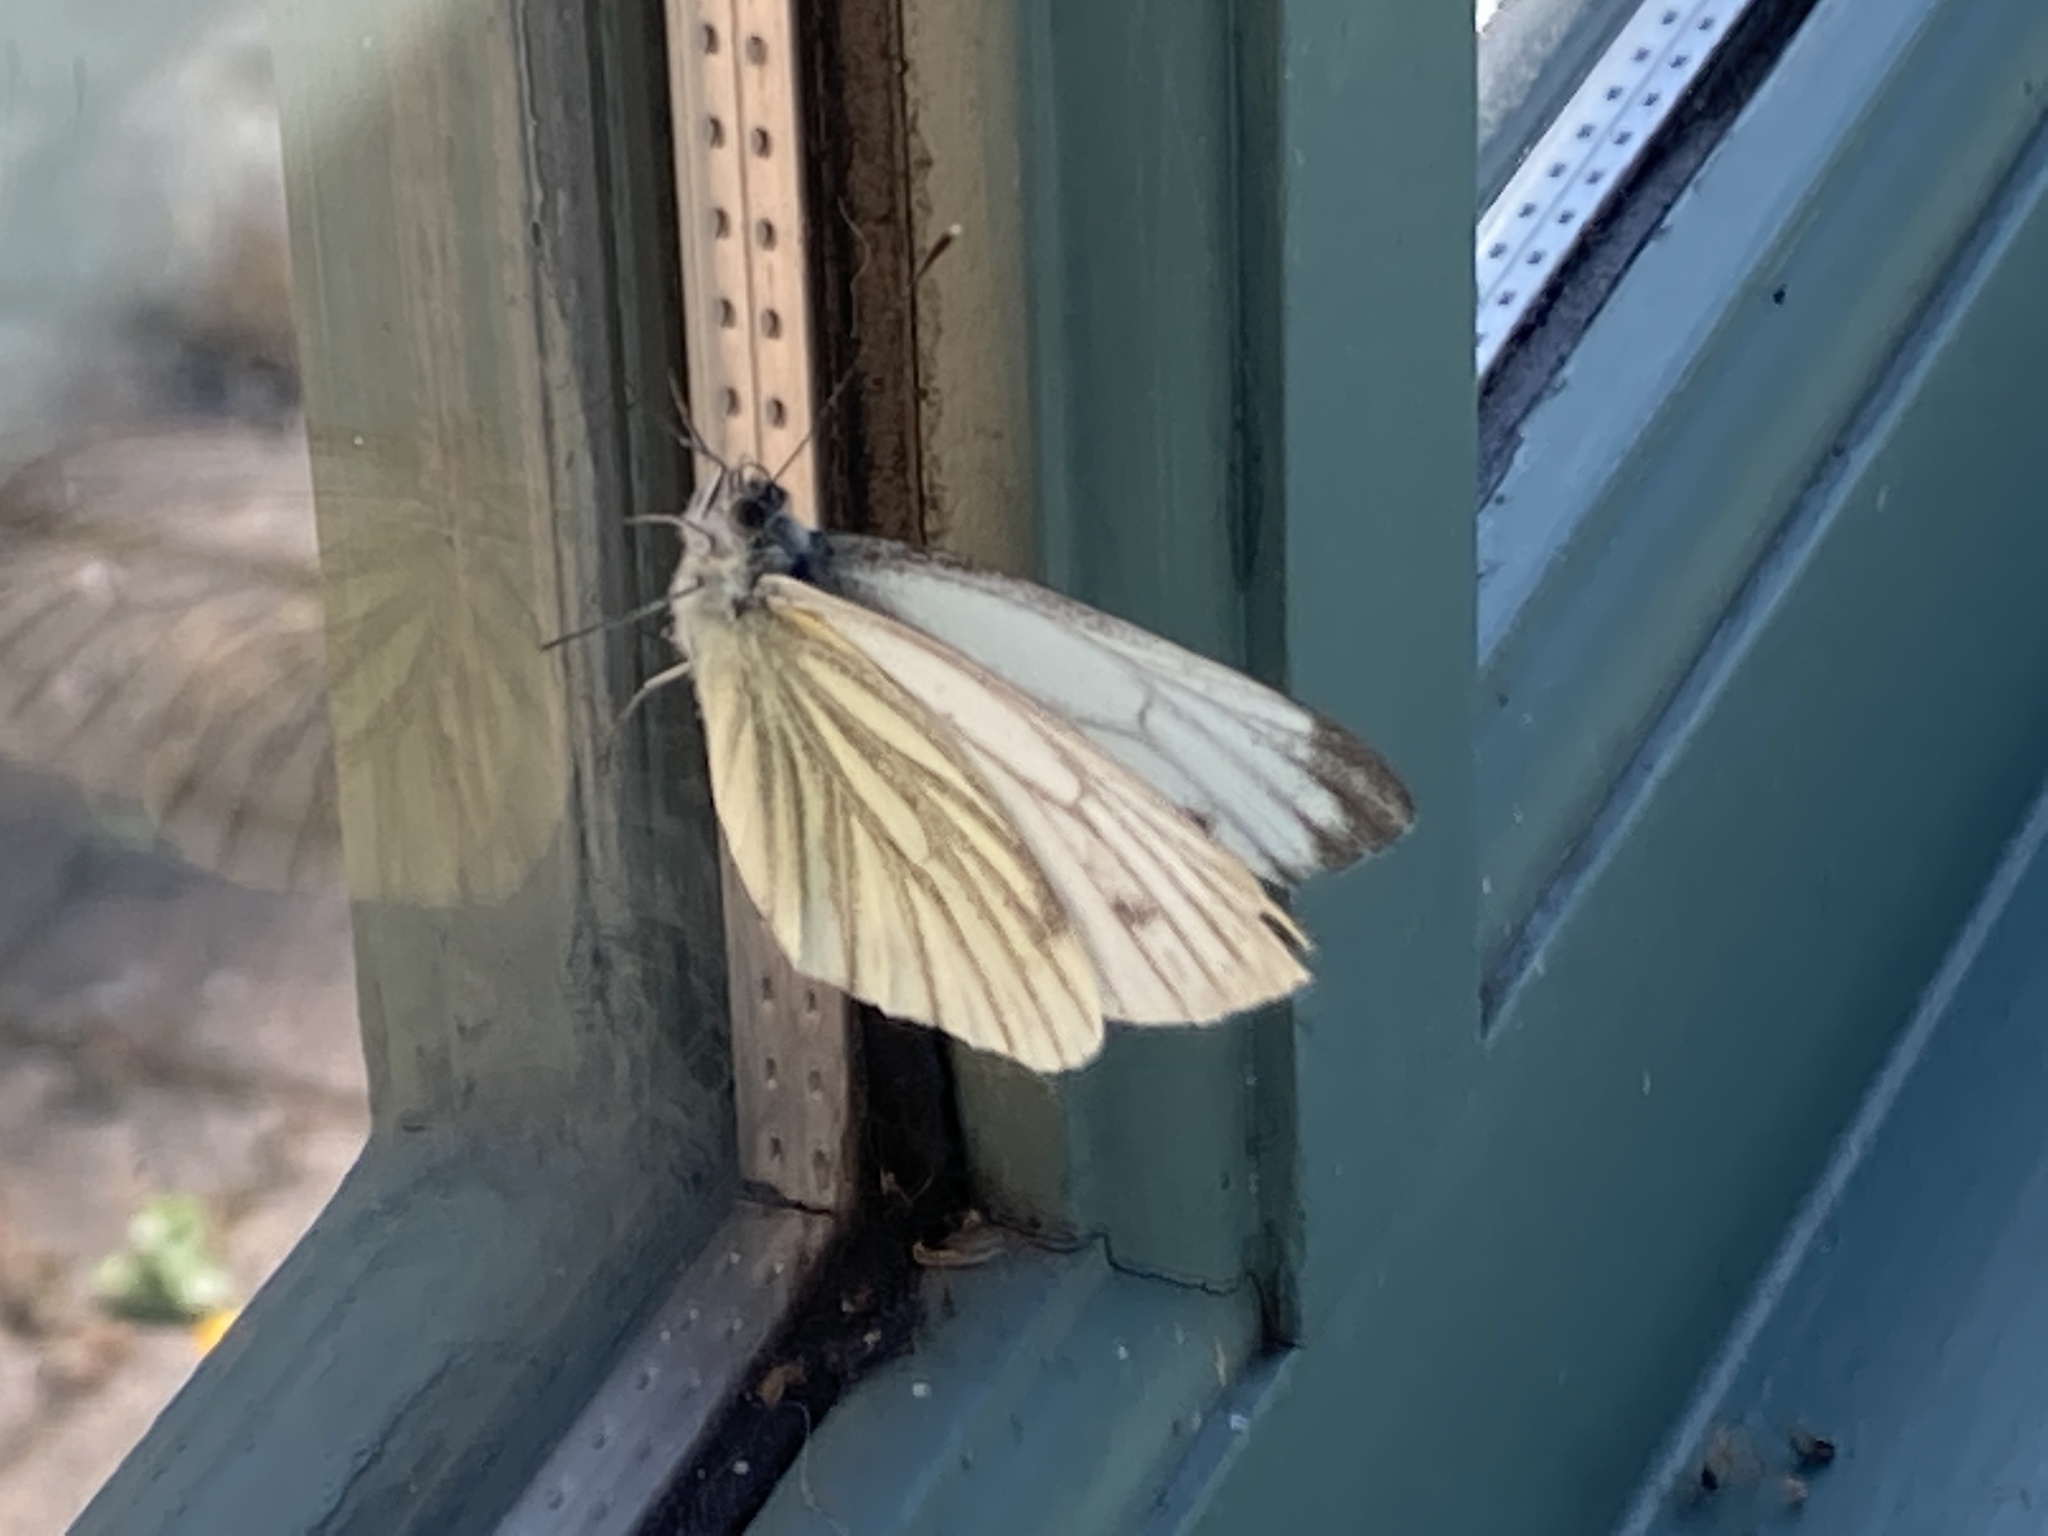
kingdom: Animalia
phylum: Arthropoda
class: Insecta
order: Lepidoptera
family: Pieridae
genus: Pieris
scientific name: Pieris napi
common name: Green-veined white
